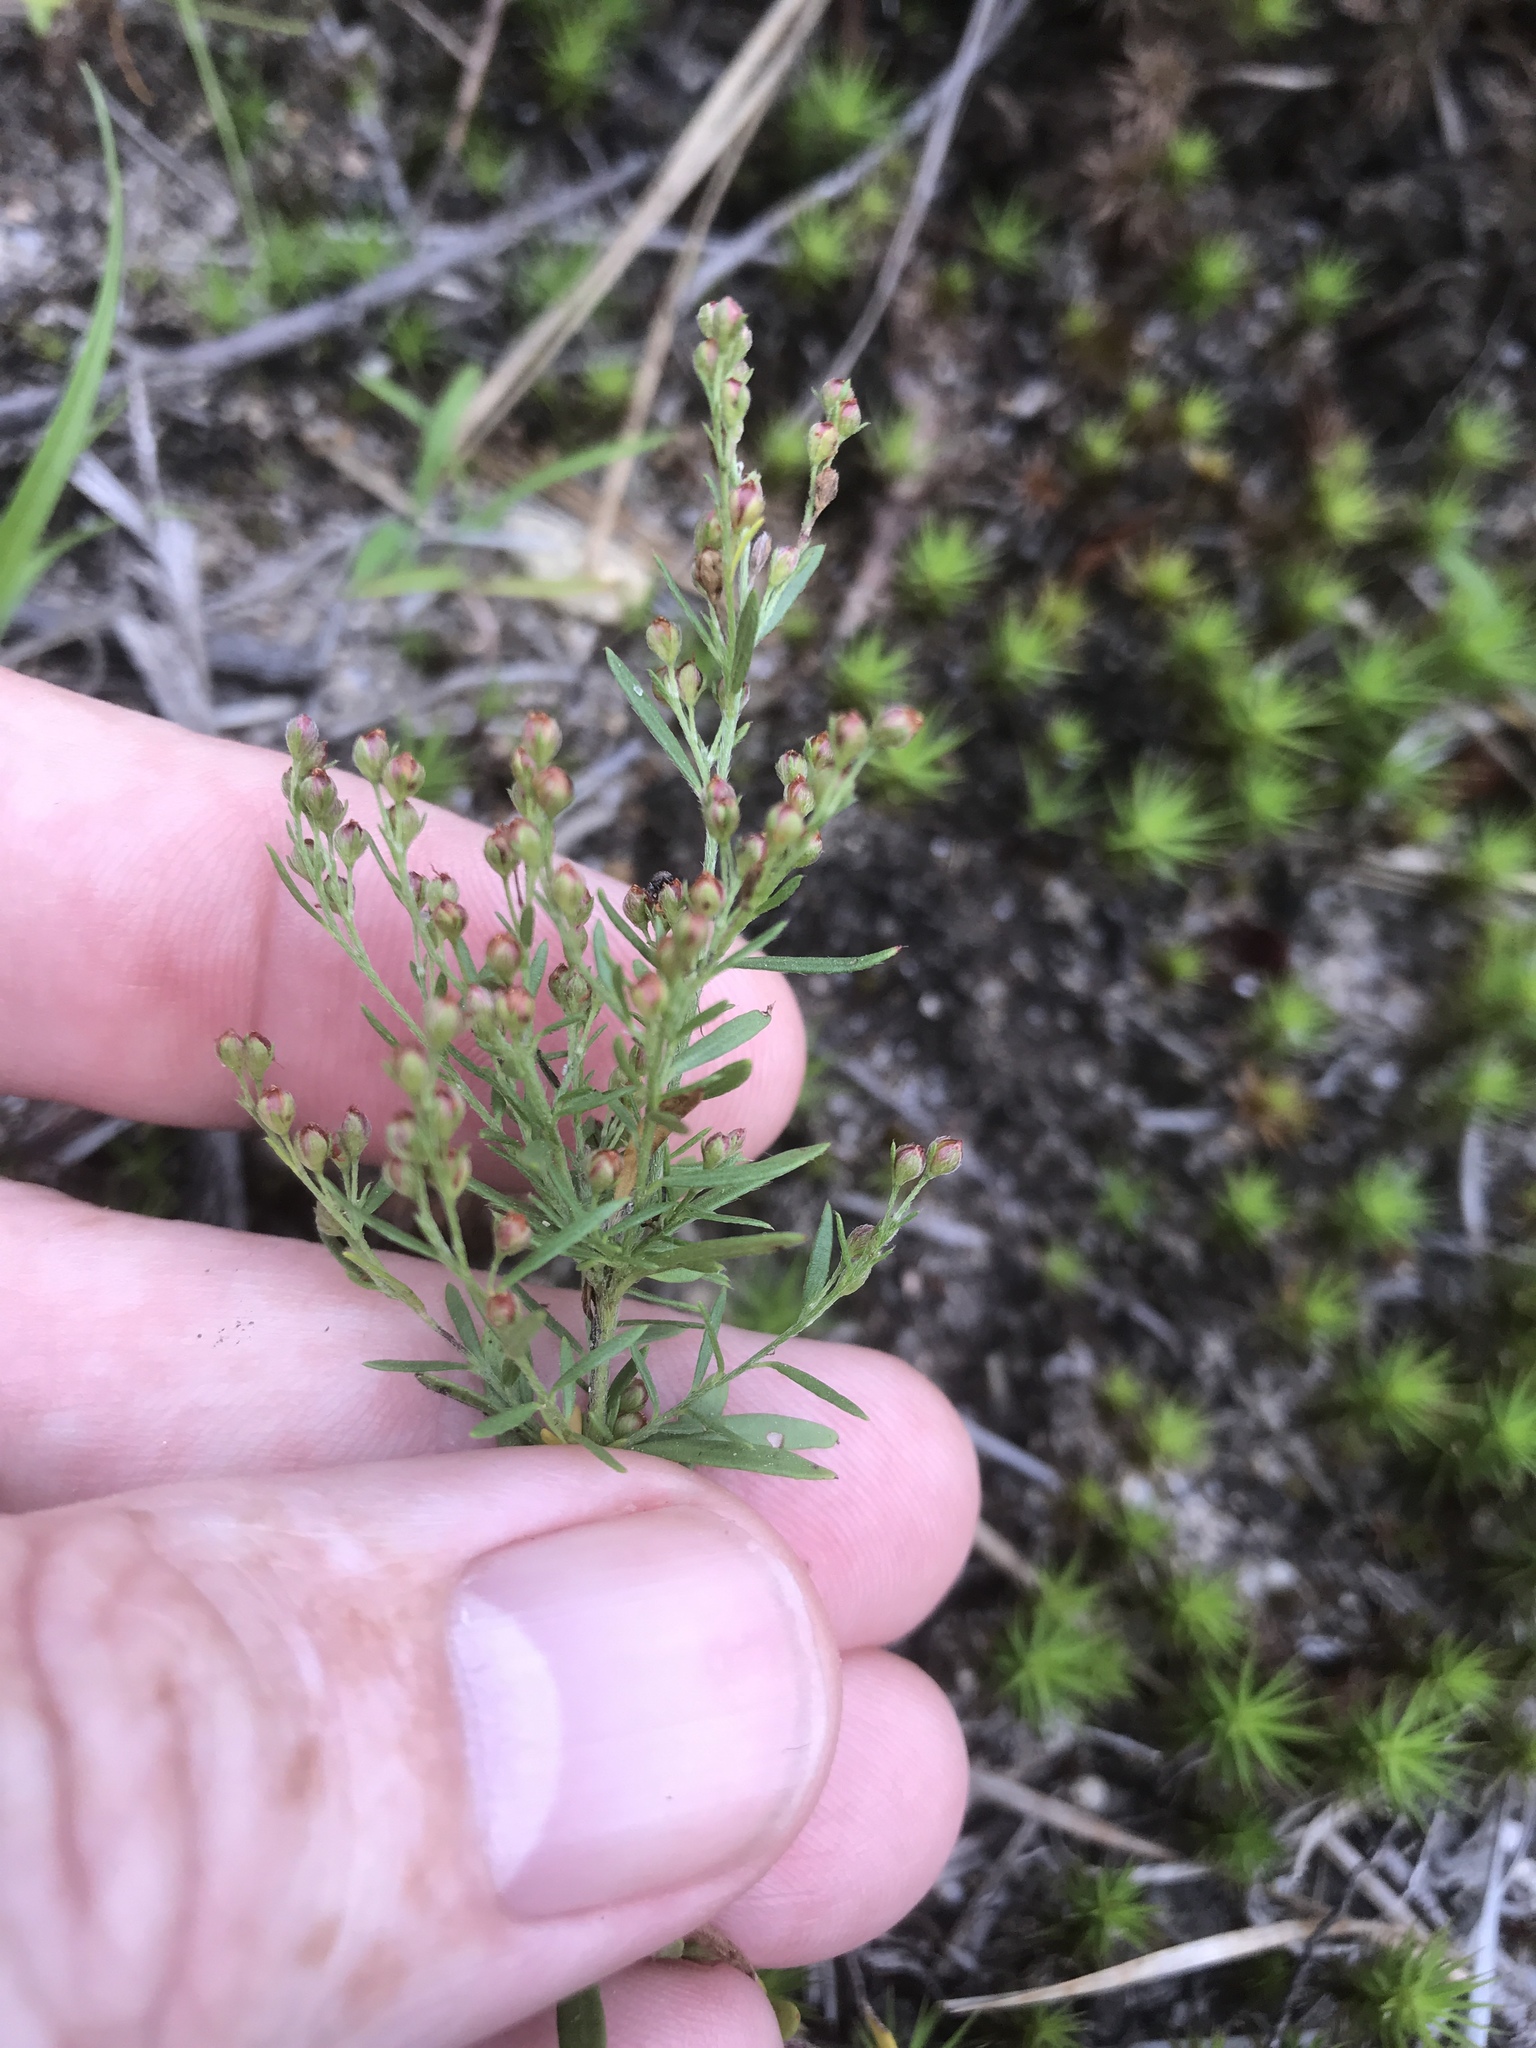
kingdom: Plantae
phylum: Tracheophyta
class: Magnoliopsida
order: Malvales
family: Cistaceae
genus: Lechea
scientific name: Lechea intermedia
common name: Intermediate pinweed
